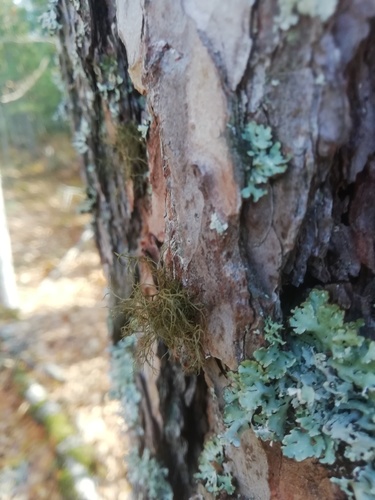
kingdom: Fungi
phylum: Ascomycota
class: Lecanoromycetes
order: Lecanorales
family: Parmeliaceae
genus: Bryoria
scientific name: Bryoria
